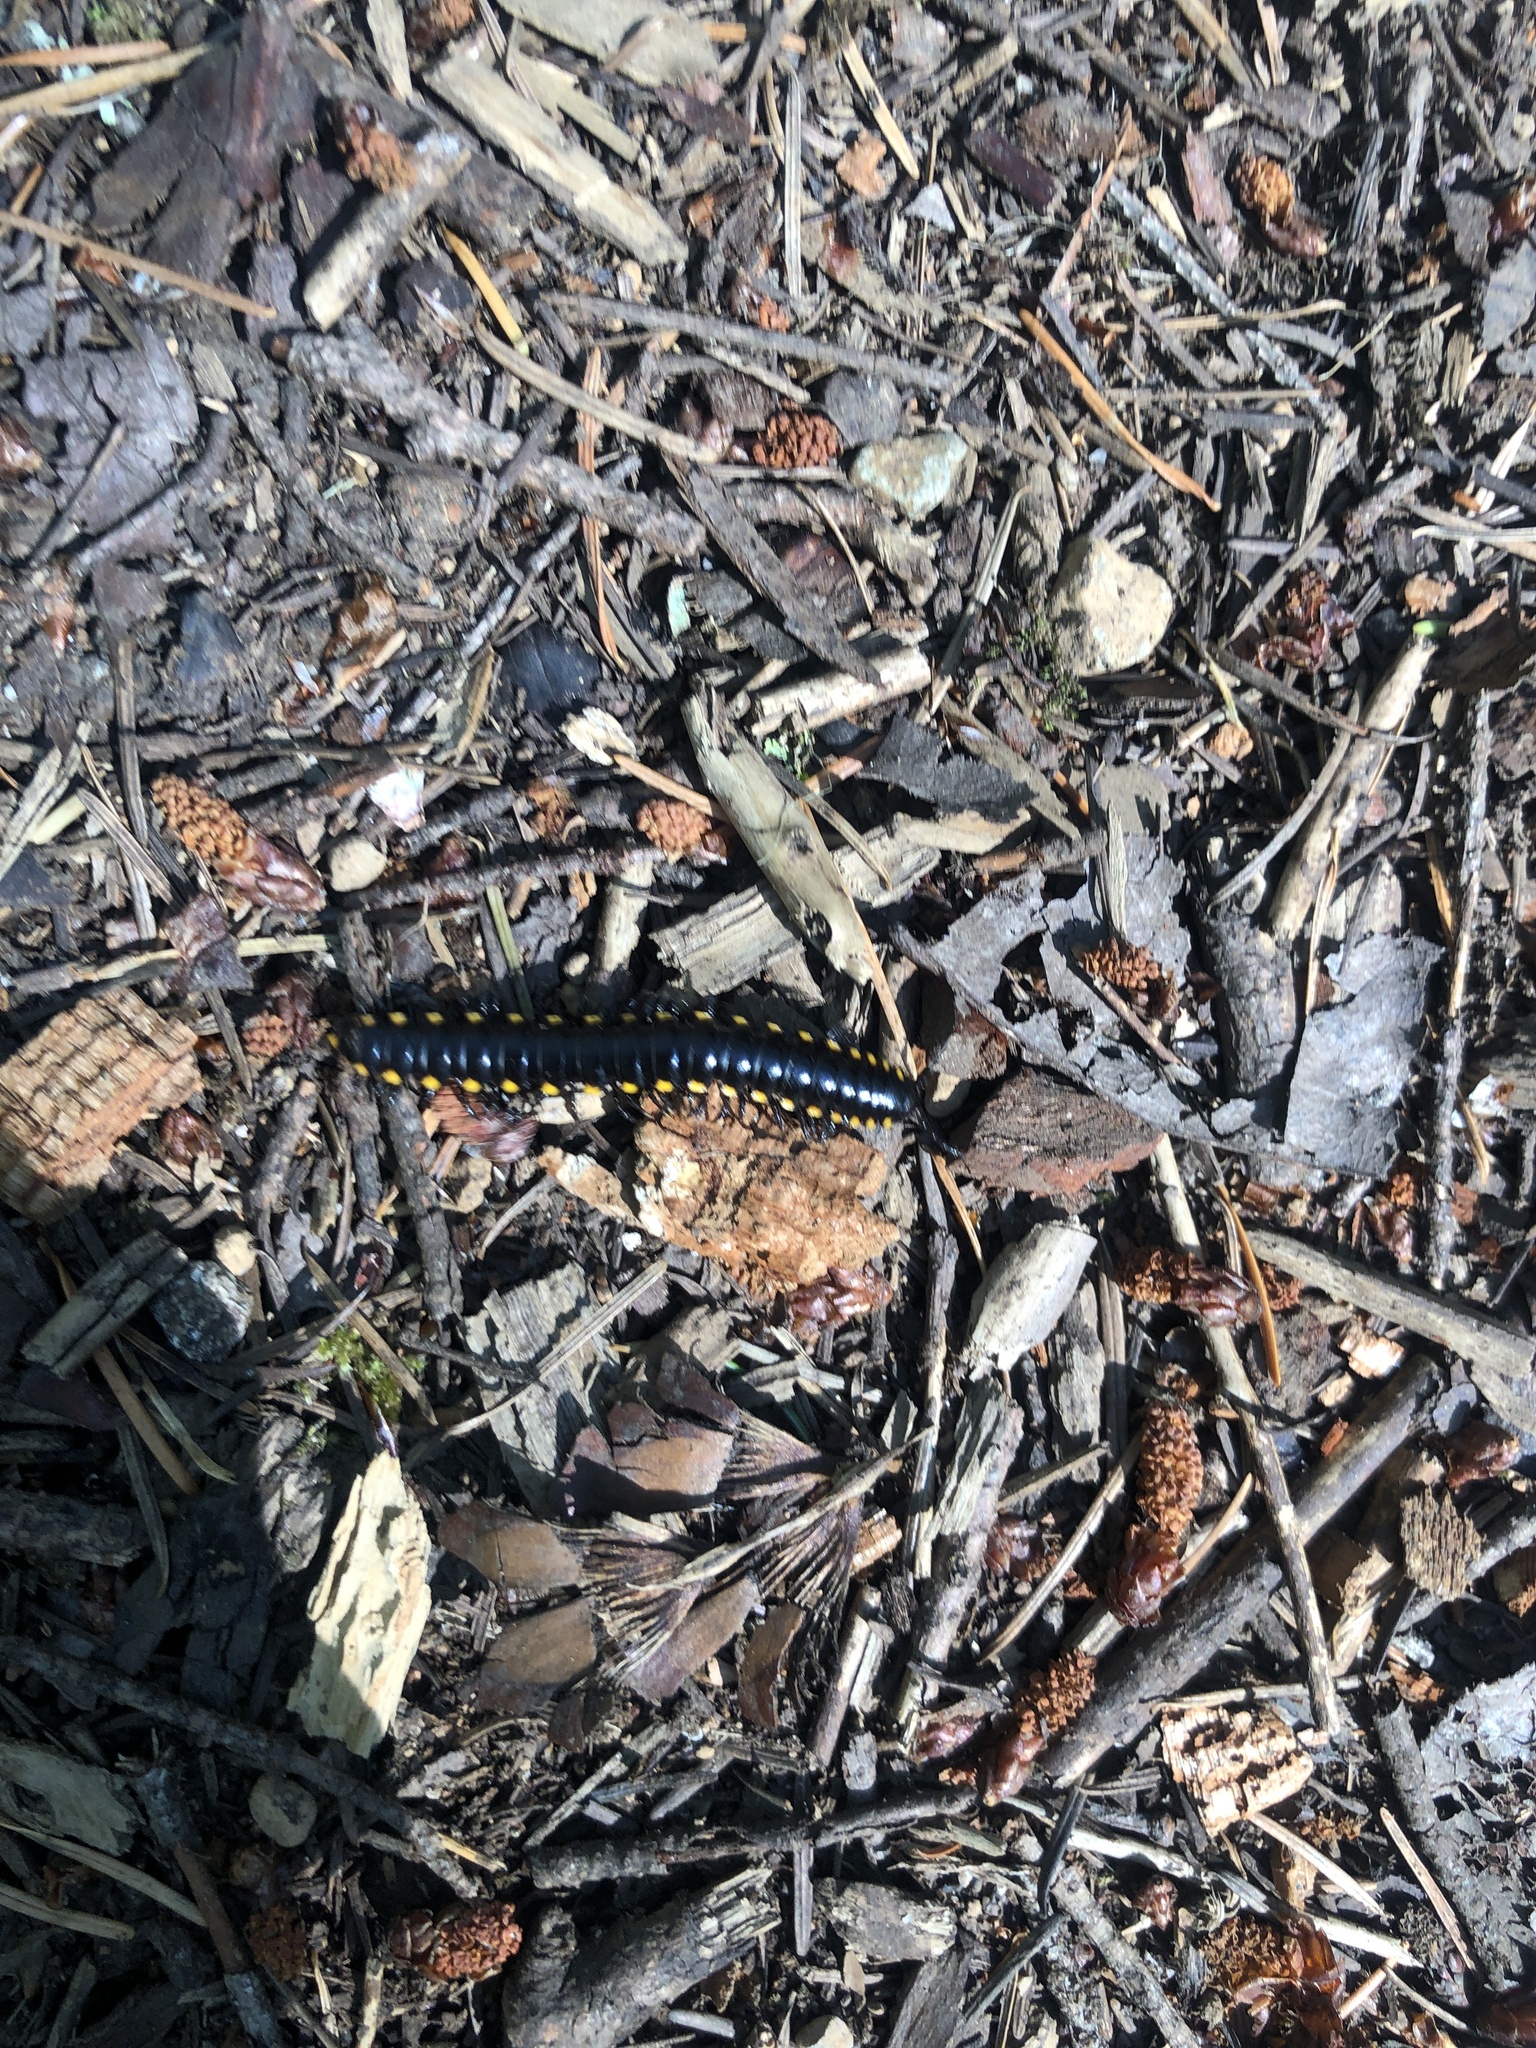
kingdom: Animalia
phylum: Arthropoda
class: Diplopoda
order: Polydesmida
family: Xystodesmidae
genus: Harpaphe
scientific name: Harpaphe haydeniana
